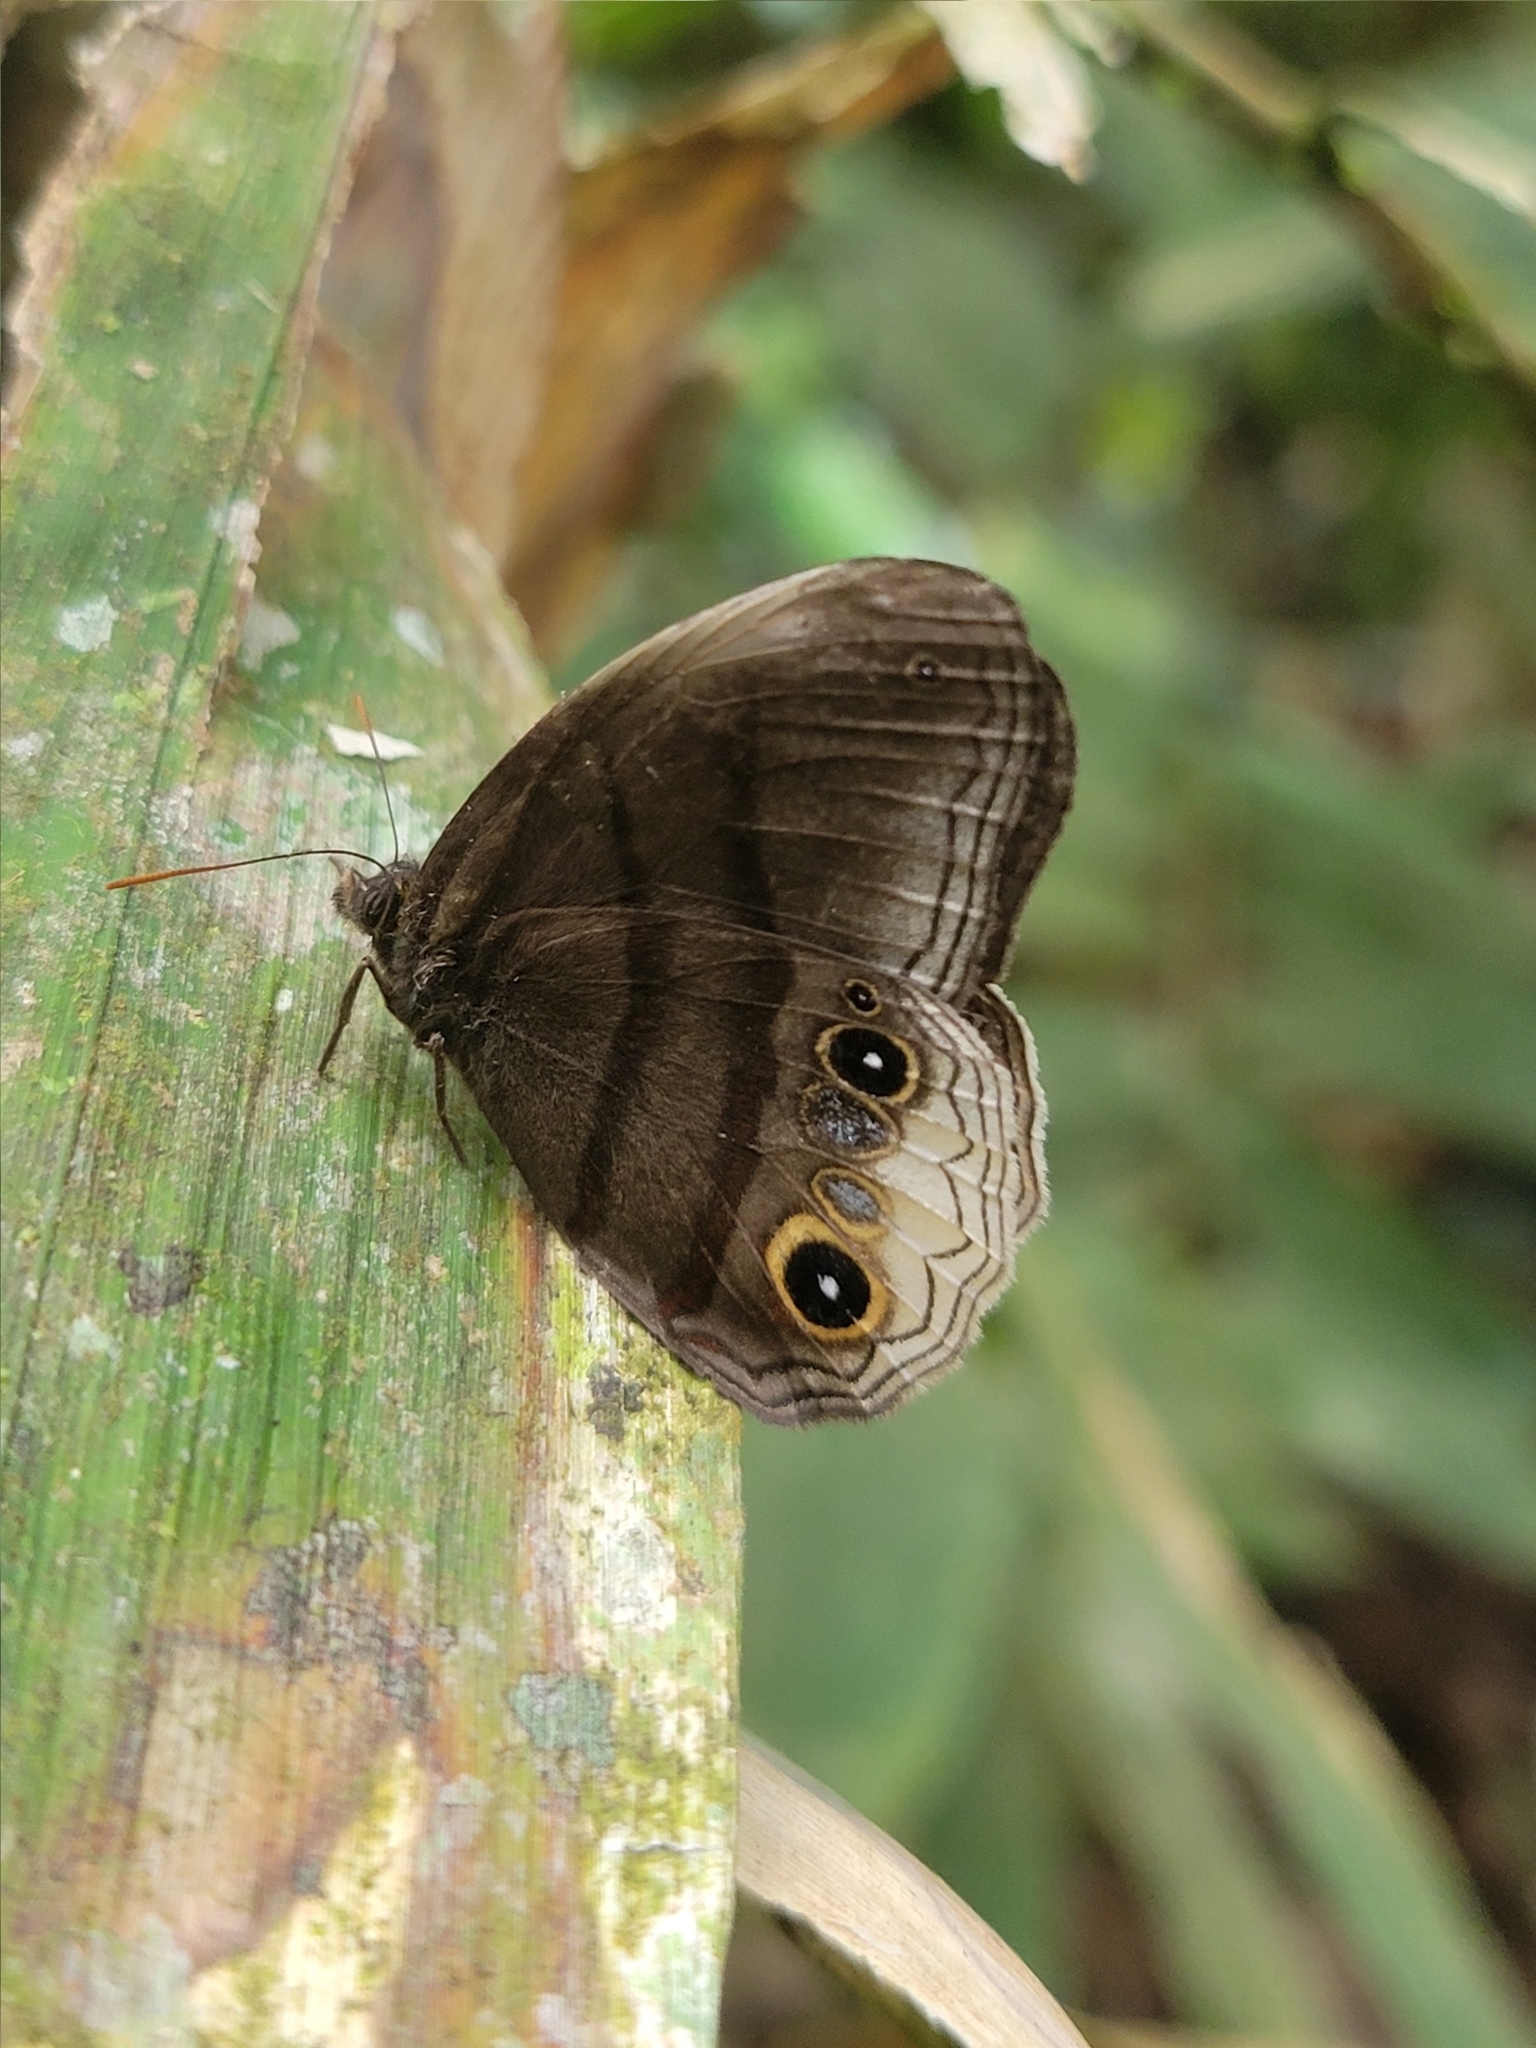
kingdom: Animalia
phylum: Arthropoda
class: Insecta
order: Lepidoptera
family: Nymphalidae
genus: Omacha
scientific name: Omacha
